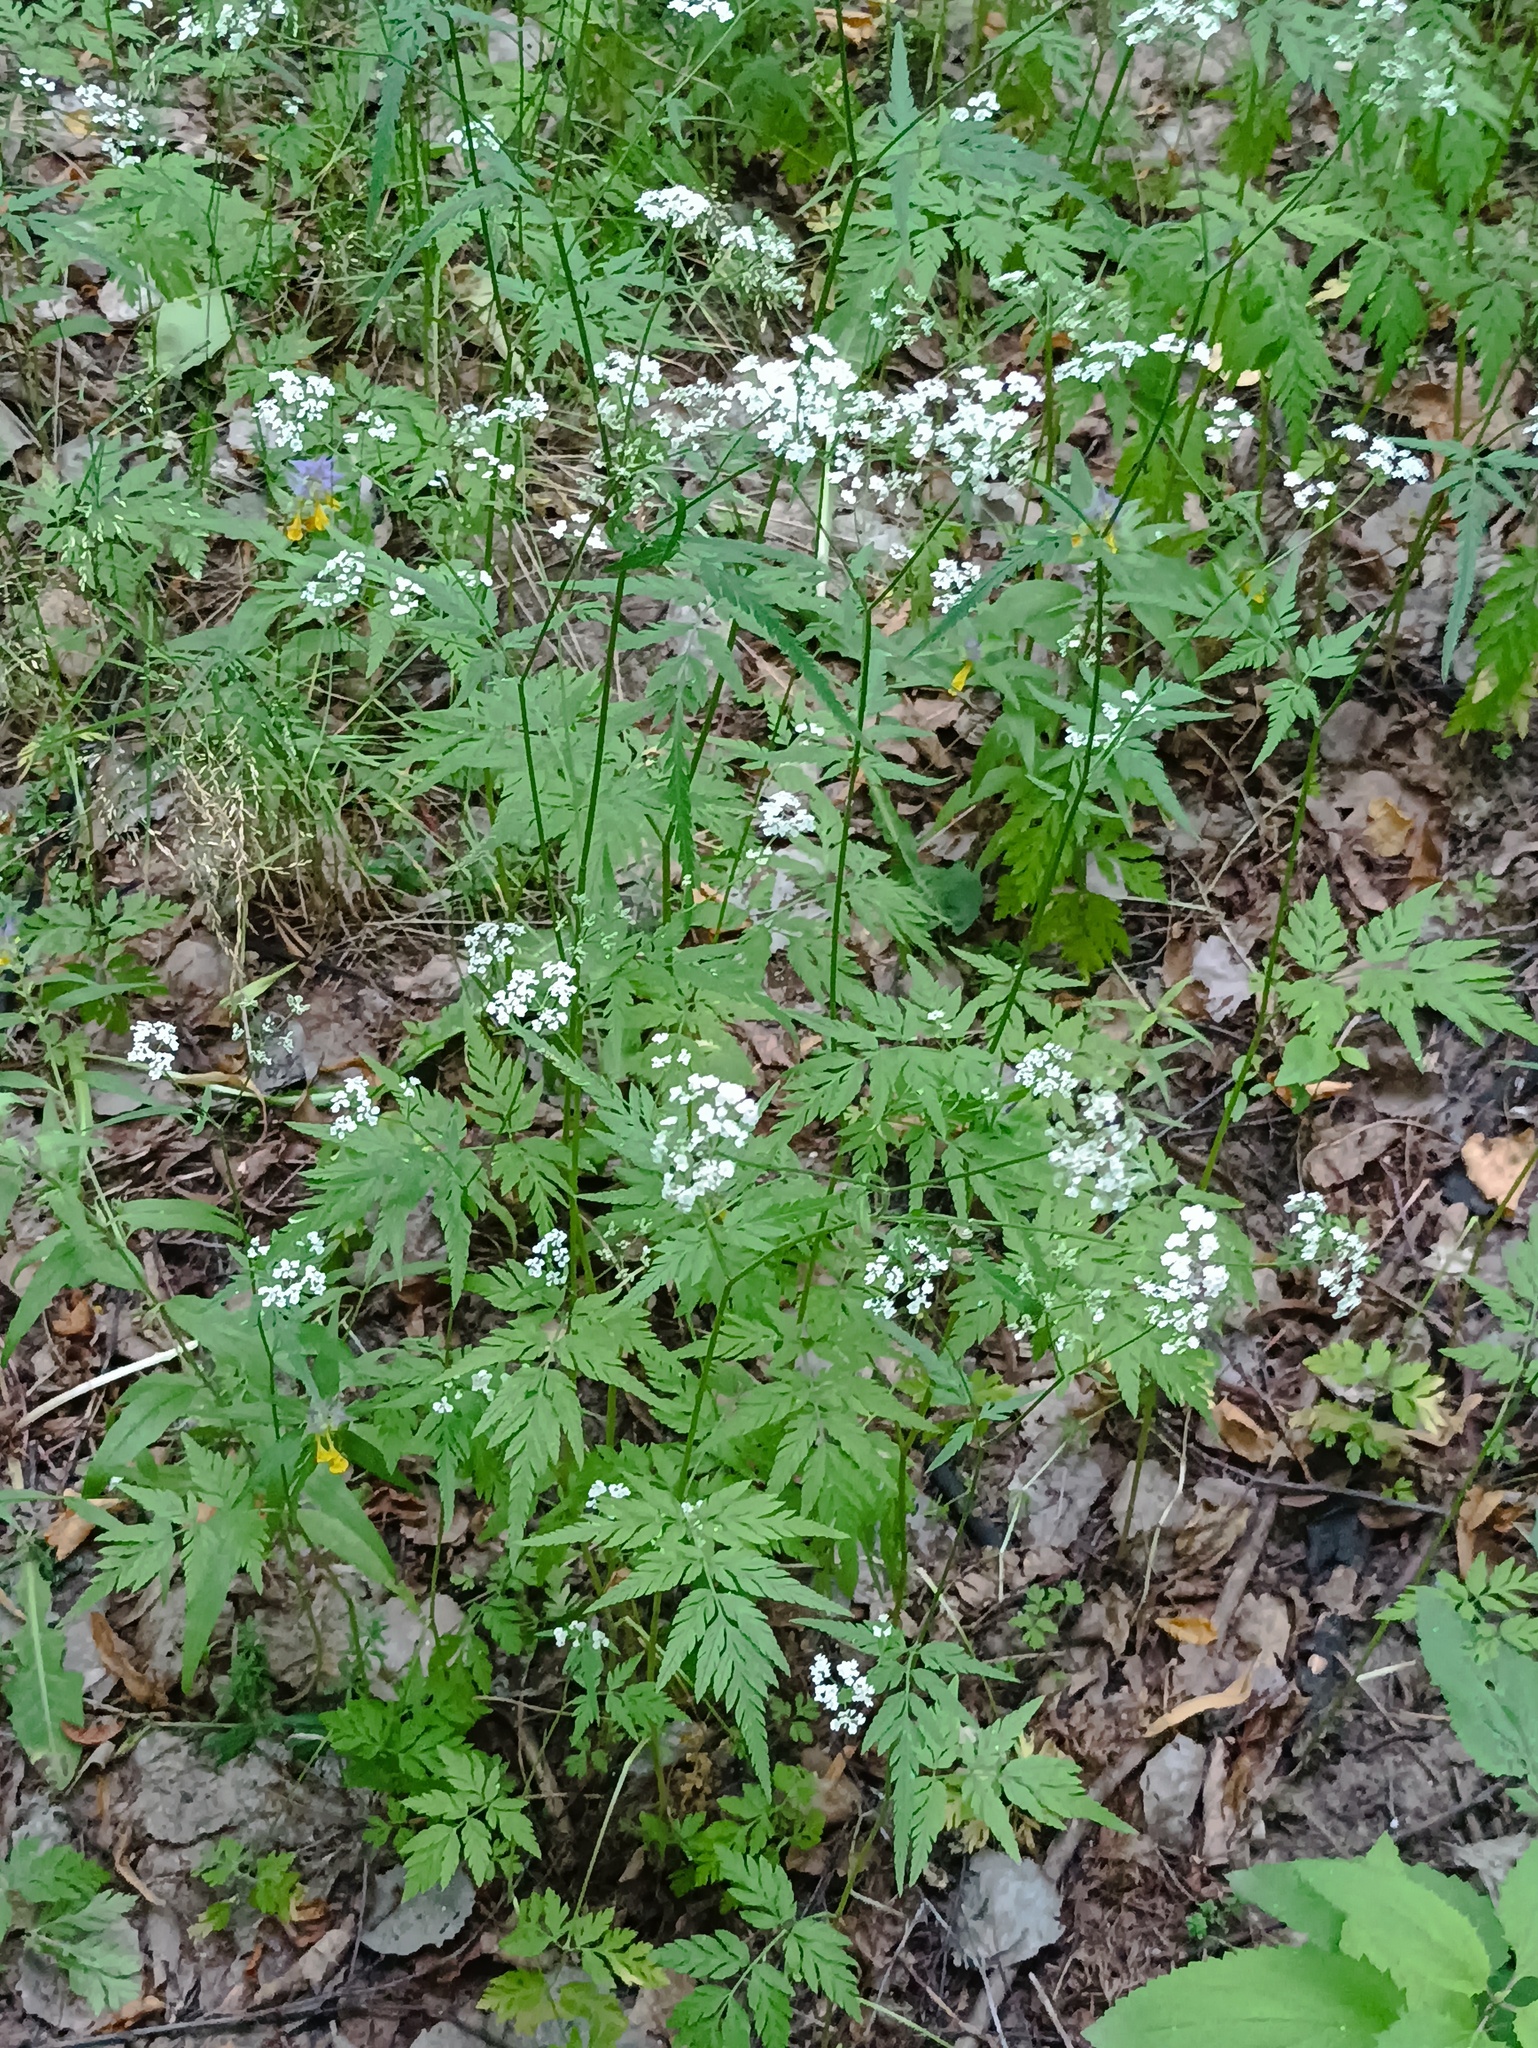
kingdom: Plantae
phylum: Tracheophyta
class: Magnoliopsida
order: Apiales
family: Apiaceae
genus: Torilis
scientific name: Torilis japonica
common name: Upright hedge-parsley
